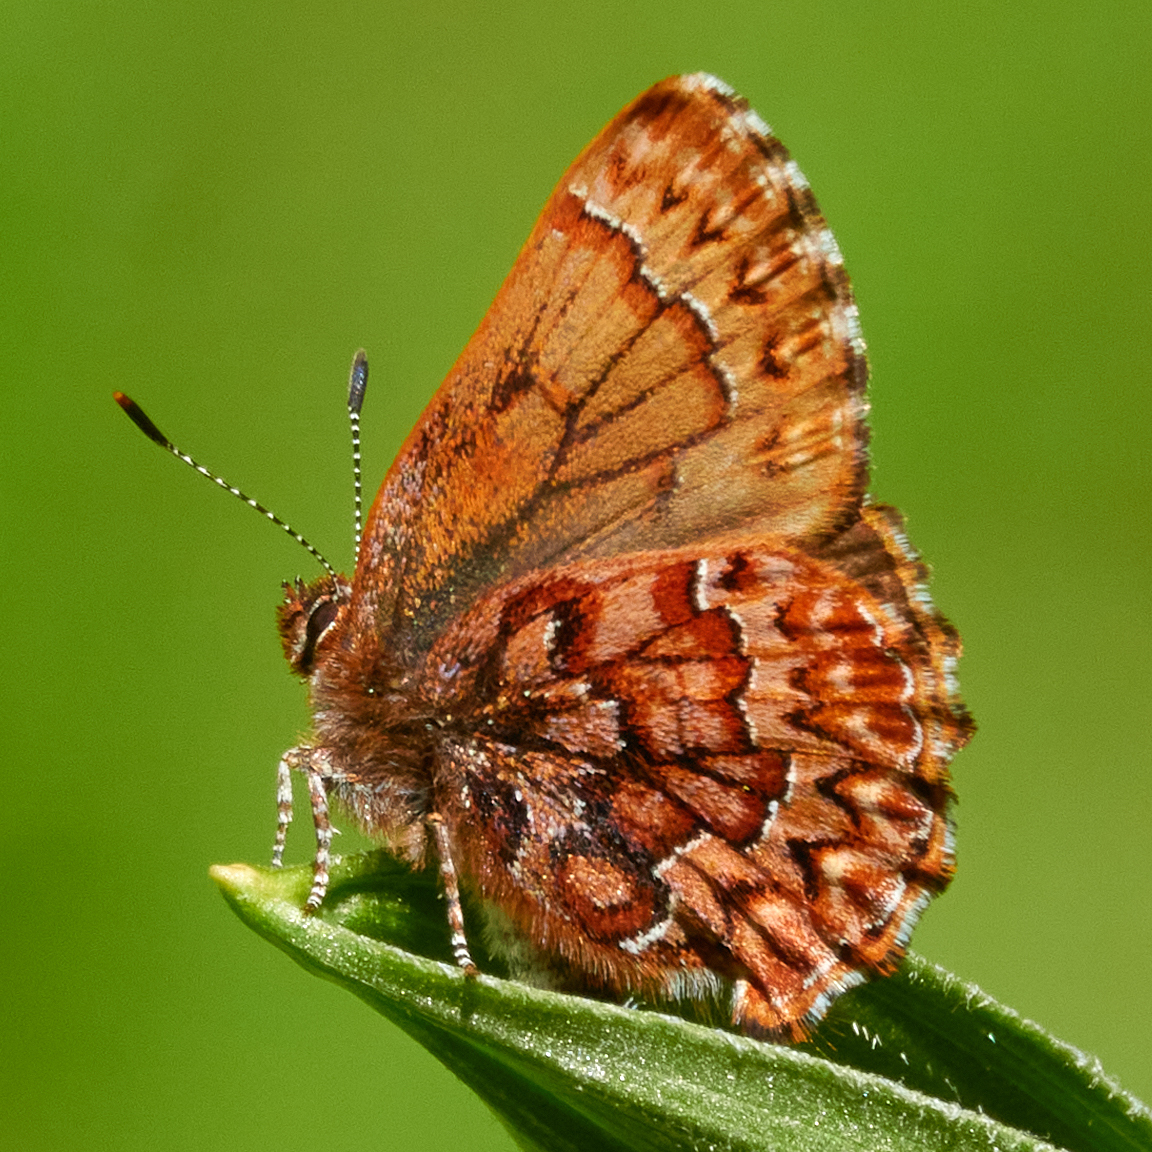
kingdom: Animalia
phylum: Arthropoda
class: Insecta
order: Lepidoptera
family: Lycaenidae
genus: Incisalia
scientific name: Incisalia eryphon
